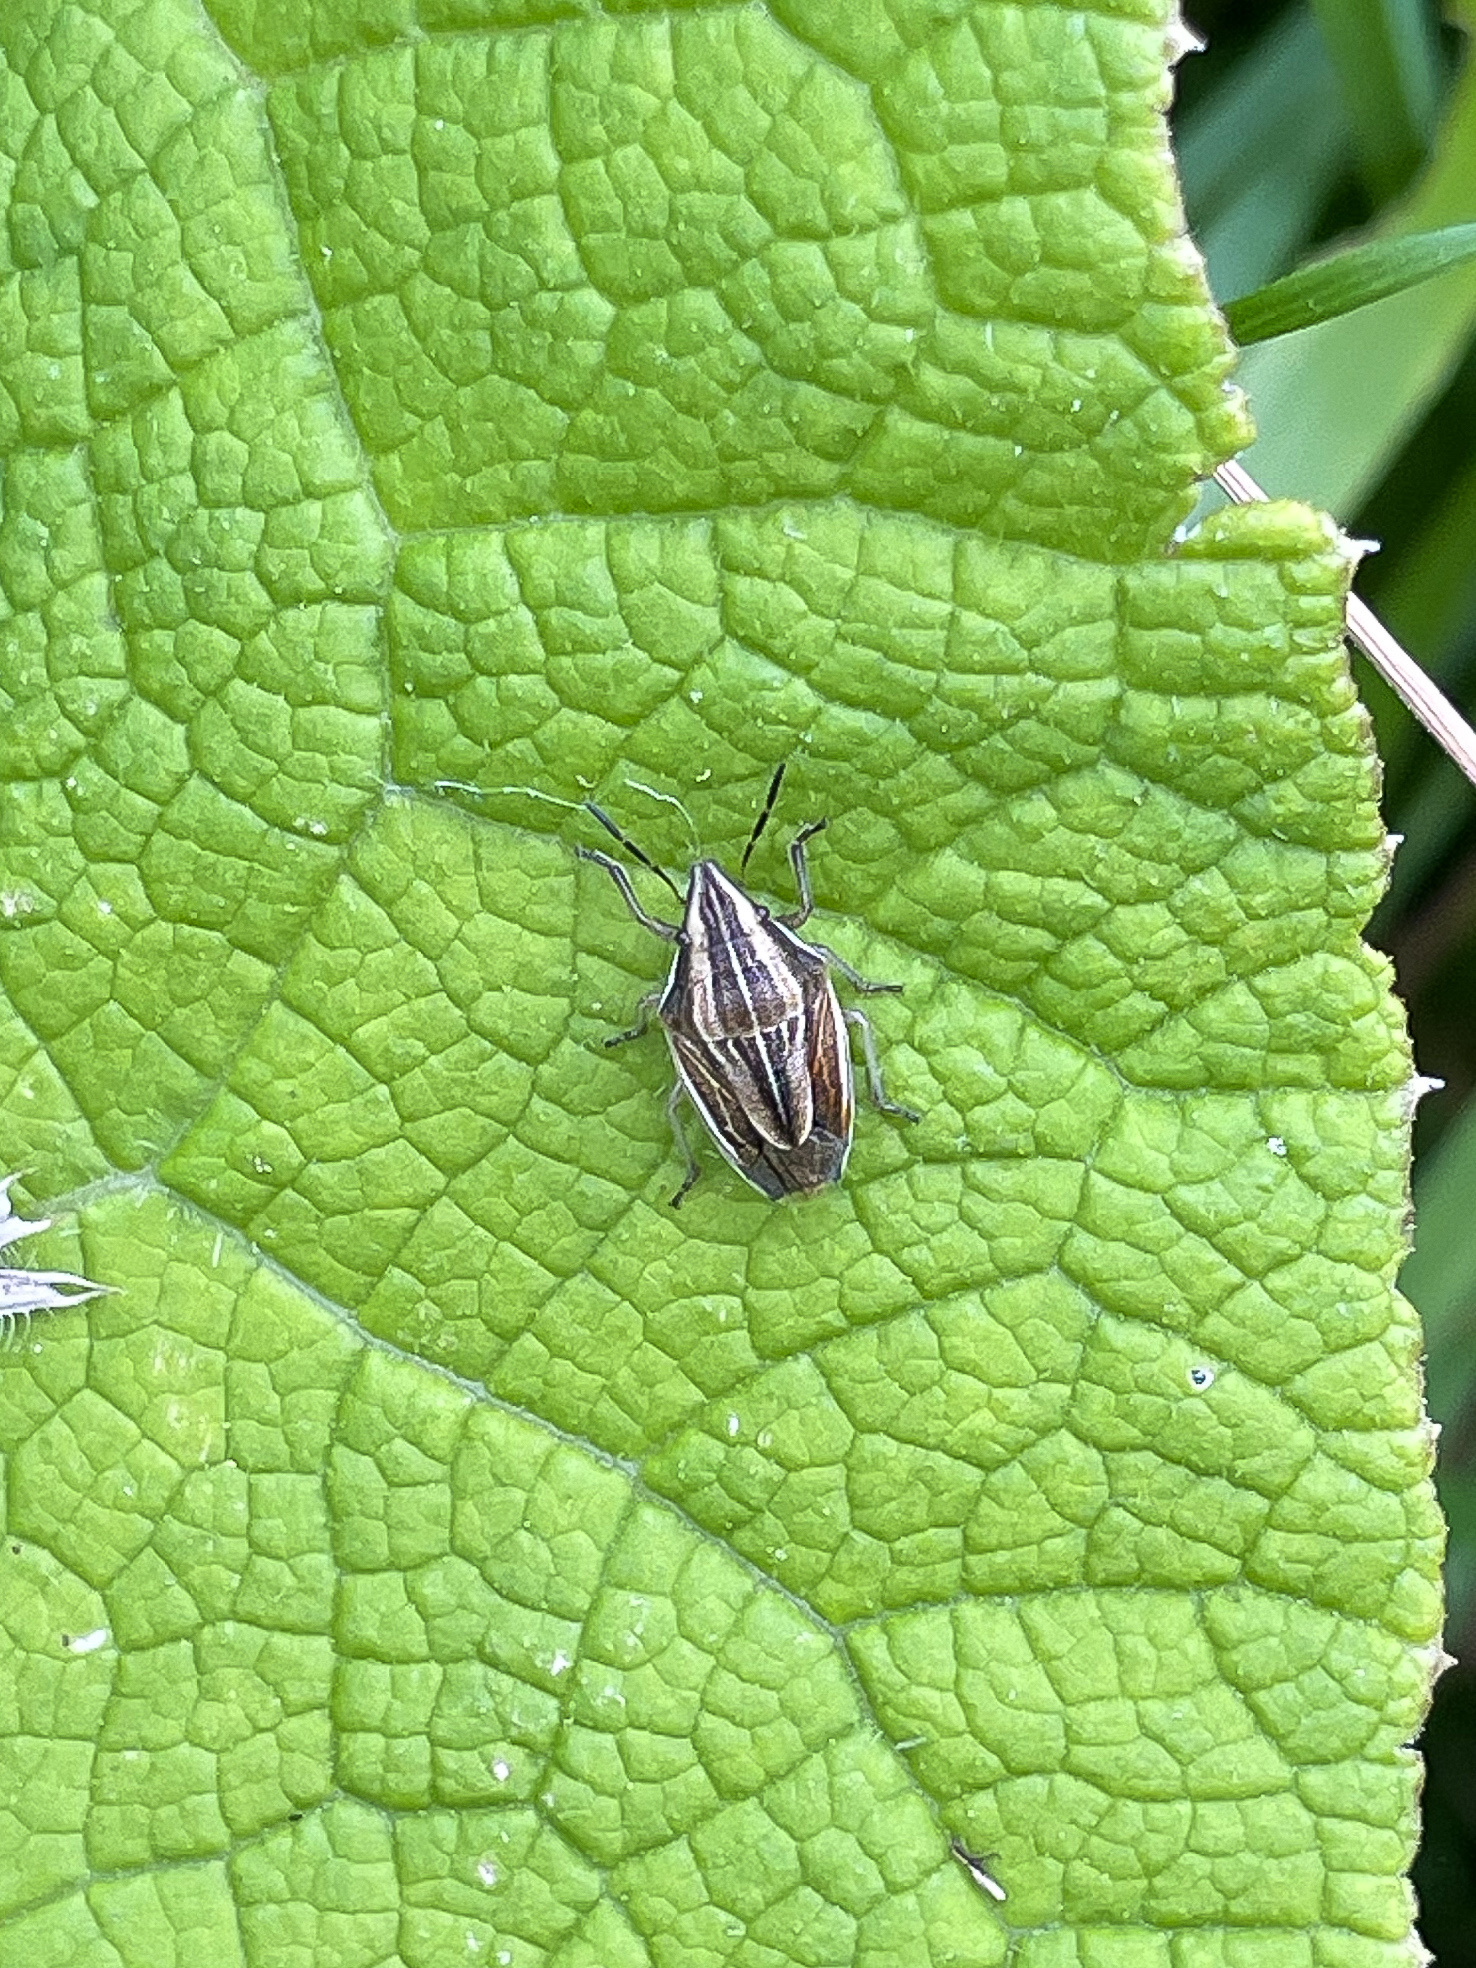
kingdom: Animalia
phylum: Arthropoda
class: Insecta
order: Hemiptera
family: Pentatomidae
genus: Aelia
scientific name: Aelia acuminata
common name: Bishop's mitre
